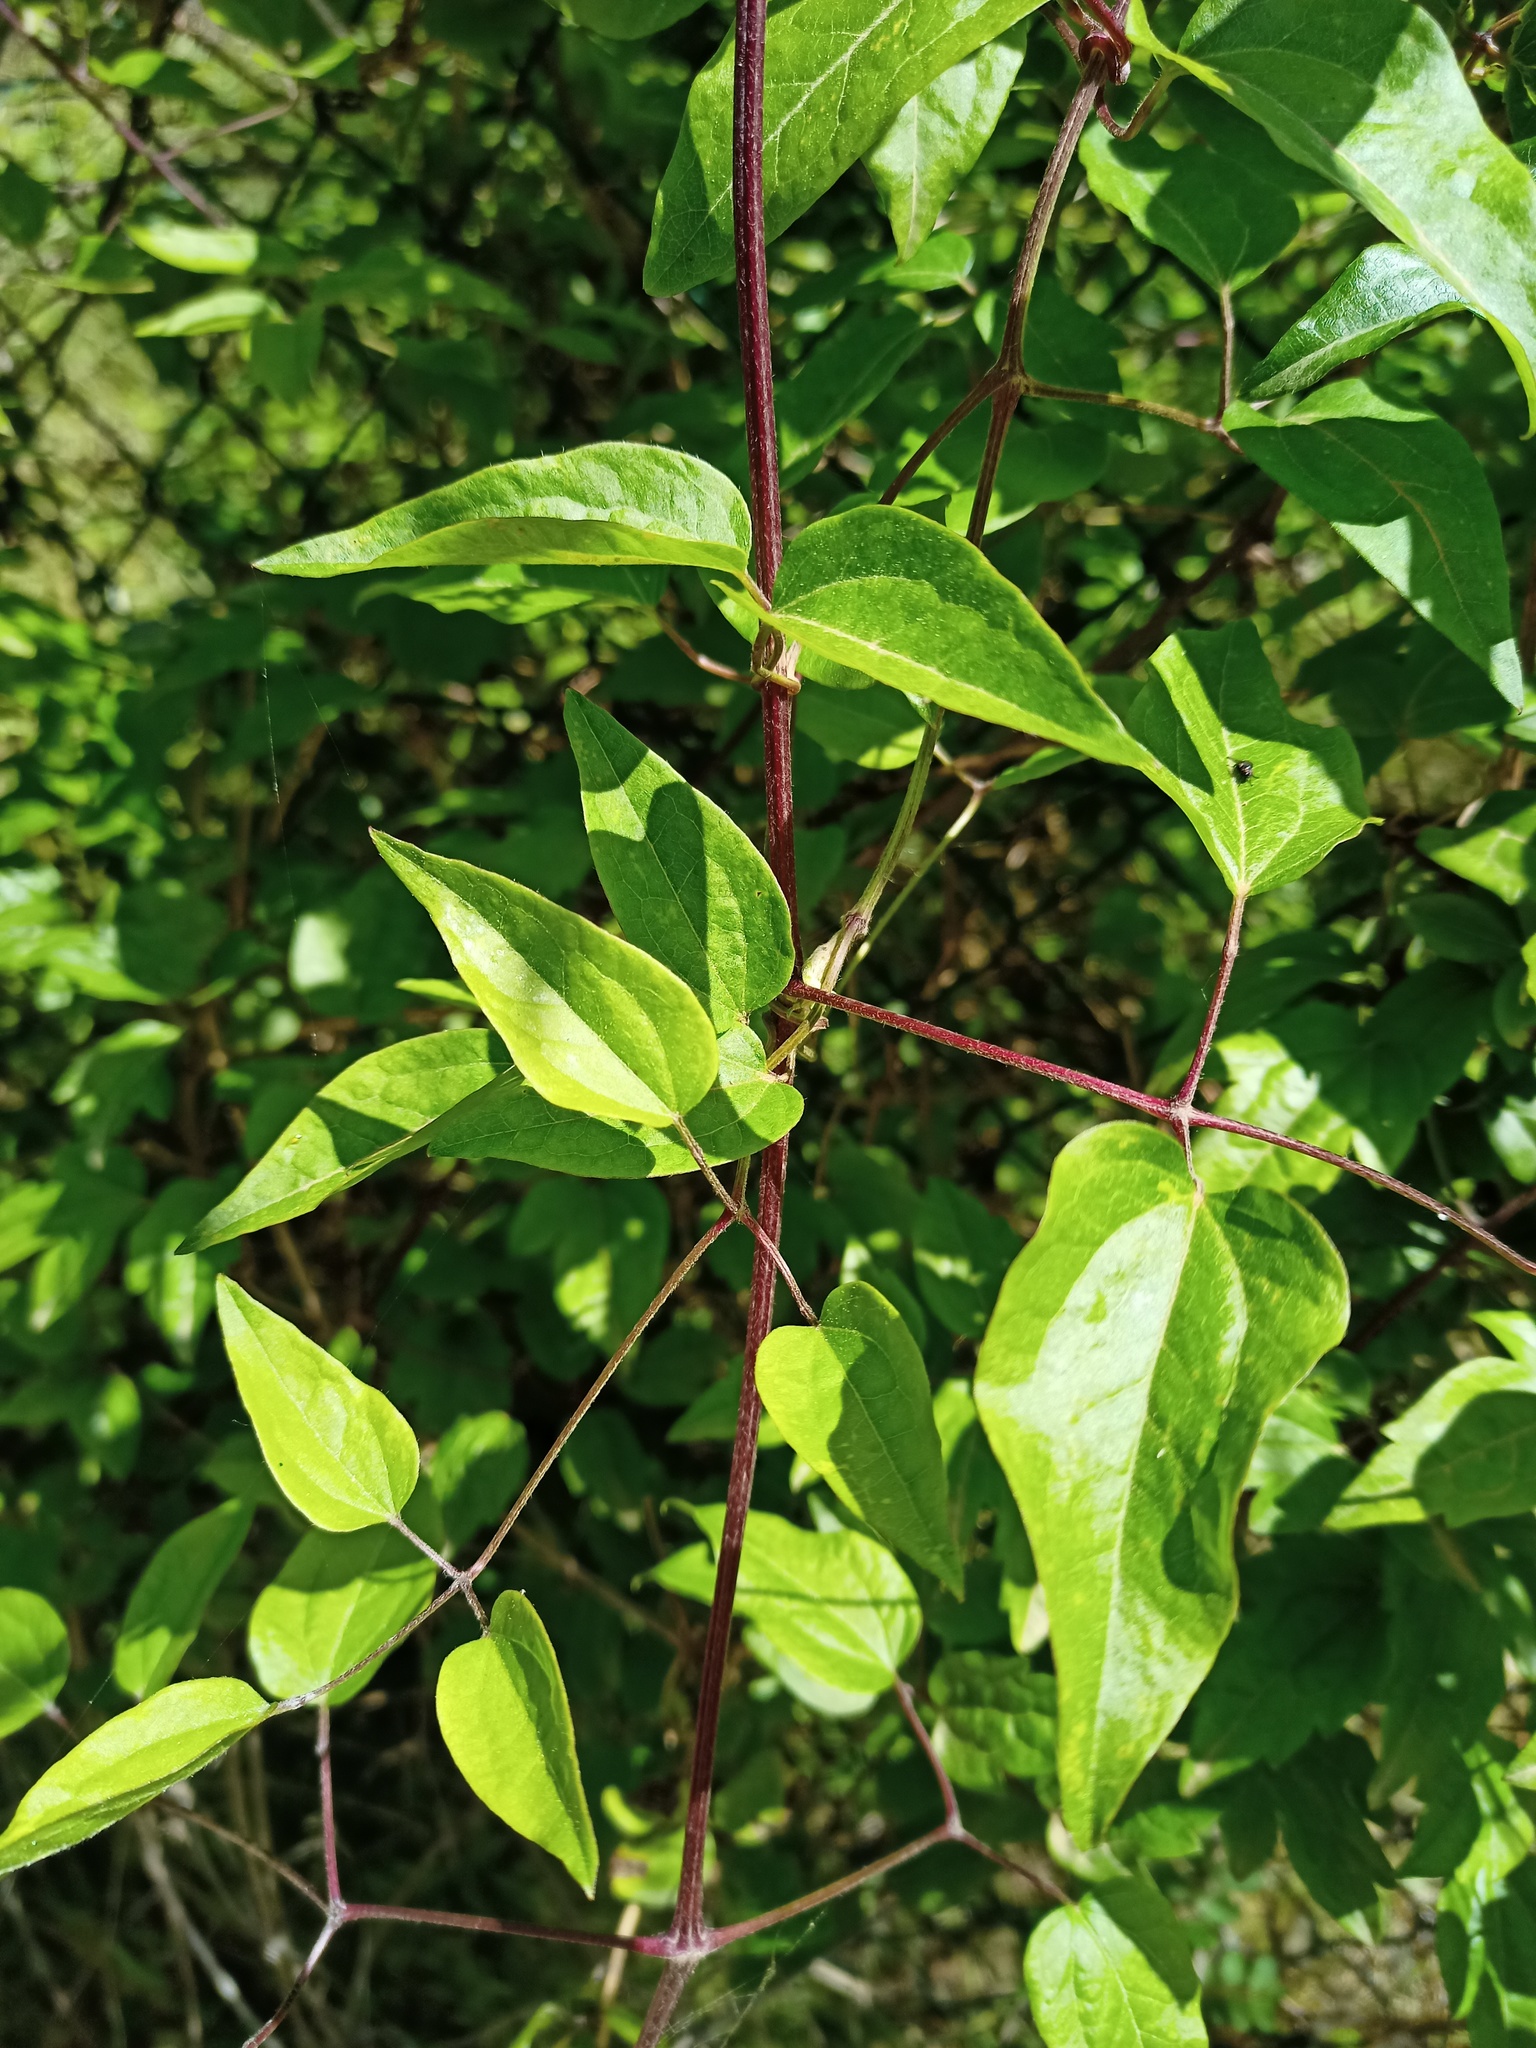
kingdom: Plantae
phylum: Tracheophyta
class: Magnoliopsida
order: Ranunculales
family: Ranunculaceae
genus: Clematis
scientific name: Clematis vitalba
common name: Evergreen clematis
